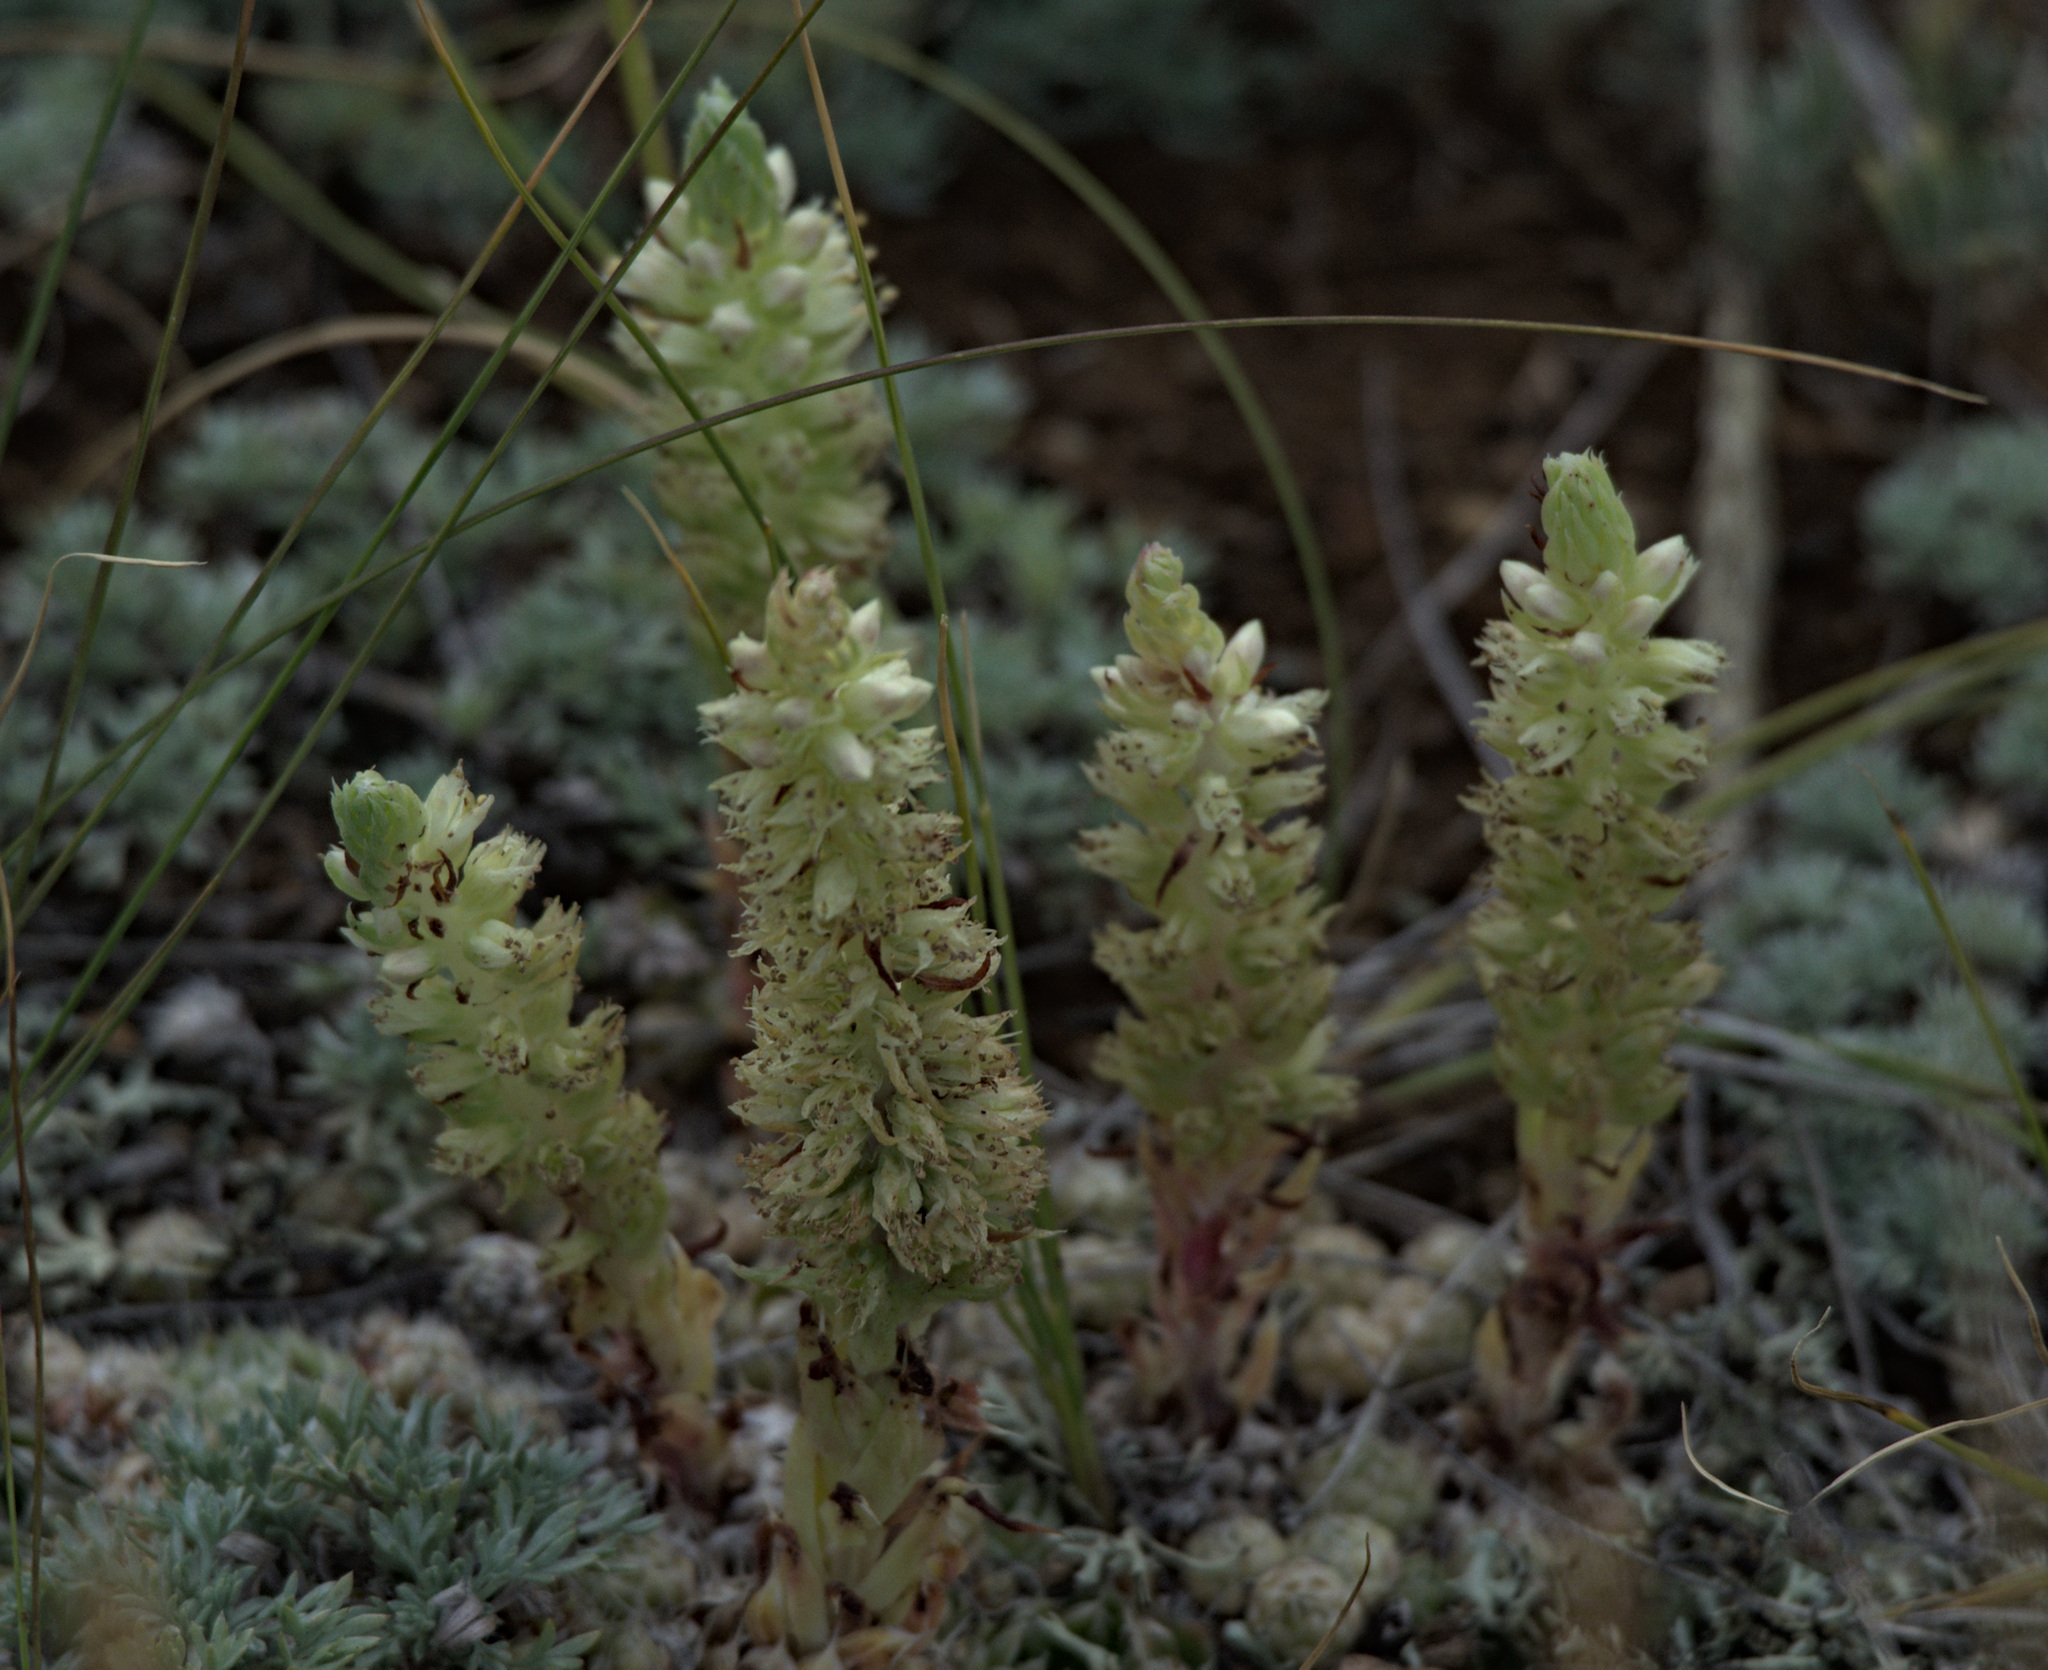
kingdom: Plantae
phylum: Tracheophyta
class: Magnoliopsida
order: Saxifragales
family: Crassulaceae
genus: Orostachys
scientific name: Orostachys thyrsiflora
